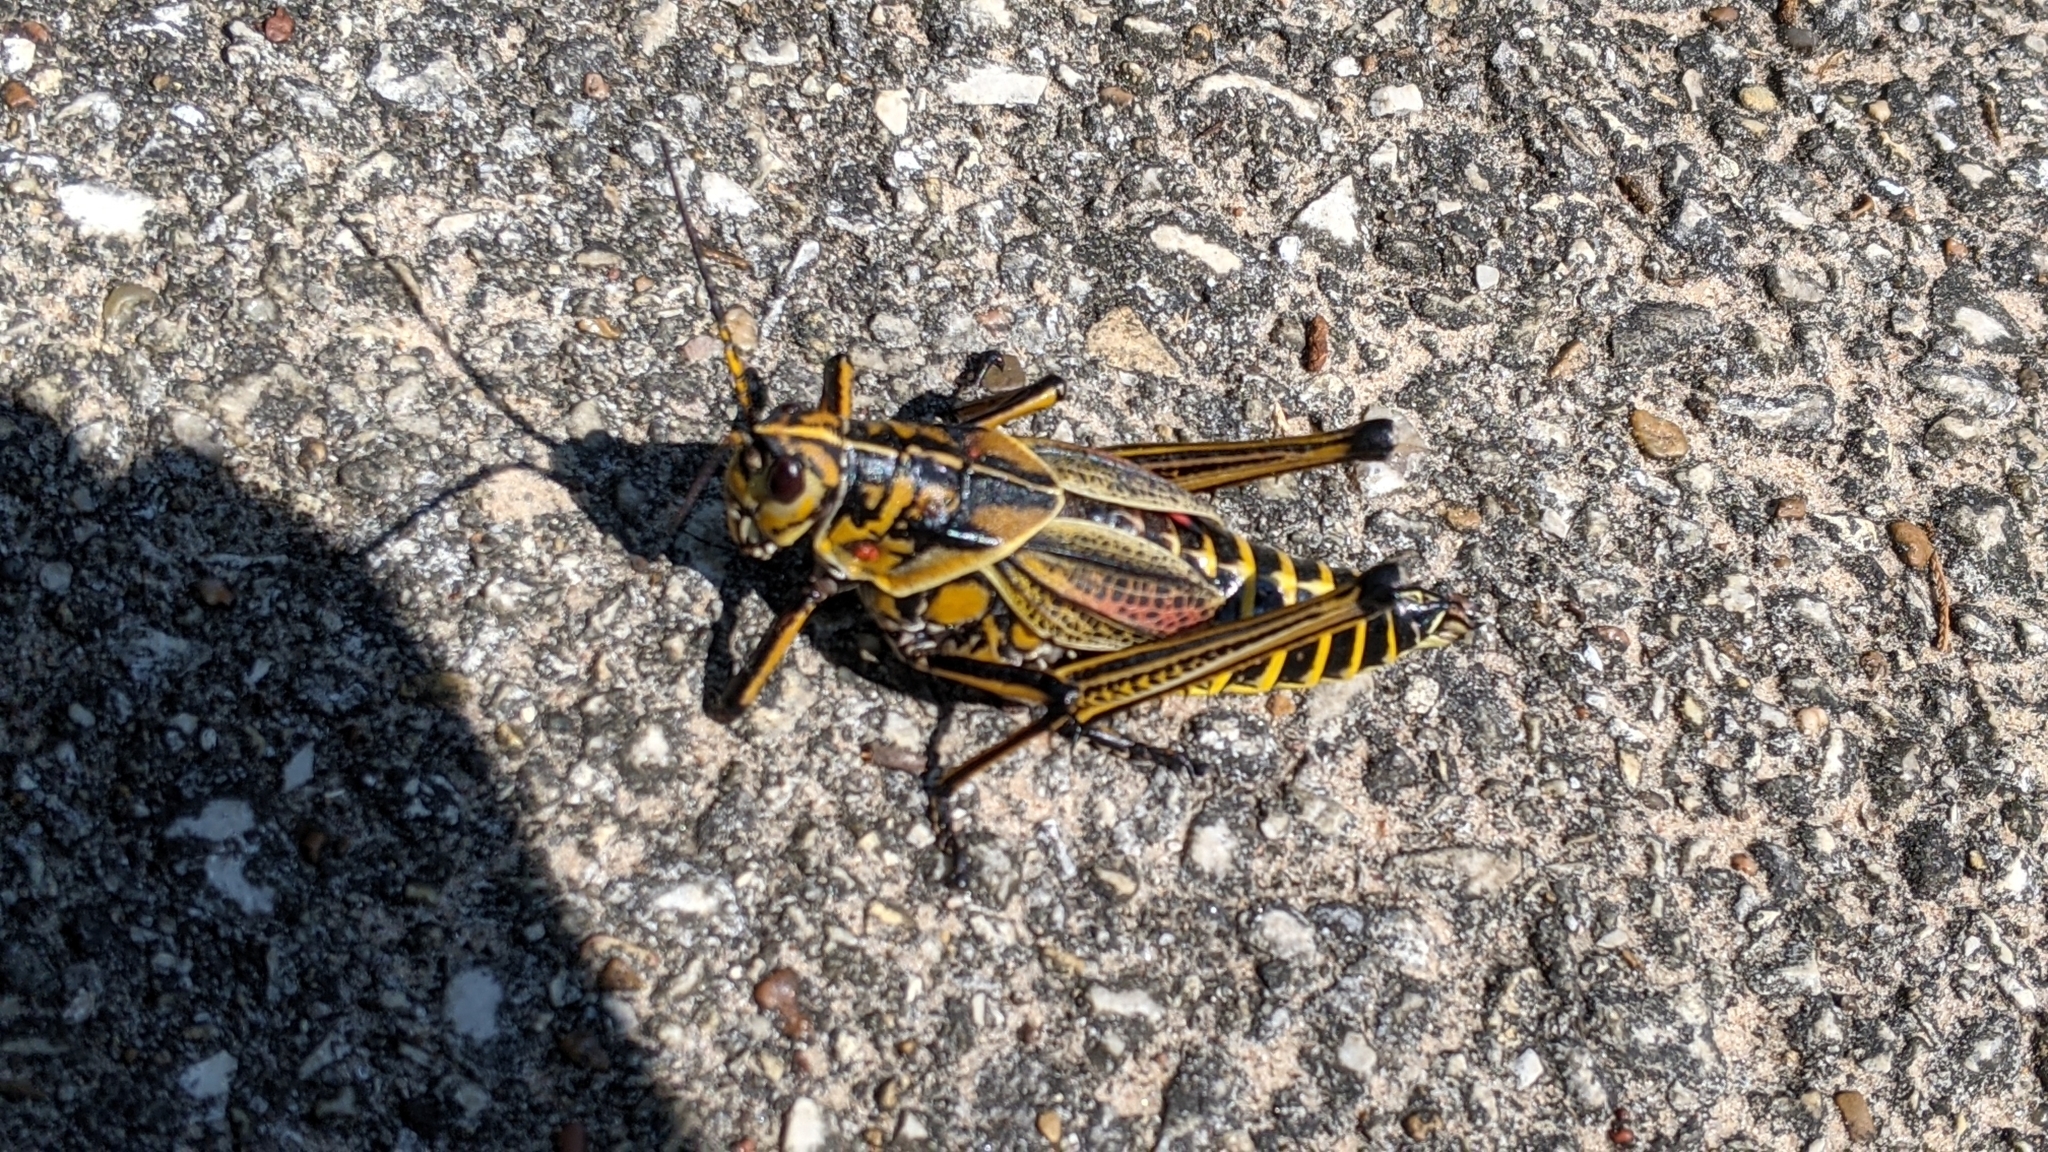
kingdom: Animalia
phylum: Arthropoda
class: Insecta
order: Orthoptera
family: Romaleidae
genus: Romalea
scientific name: Romalea microptera
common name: Eastern lubber grasshopper
